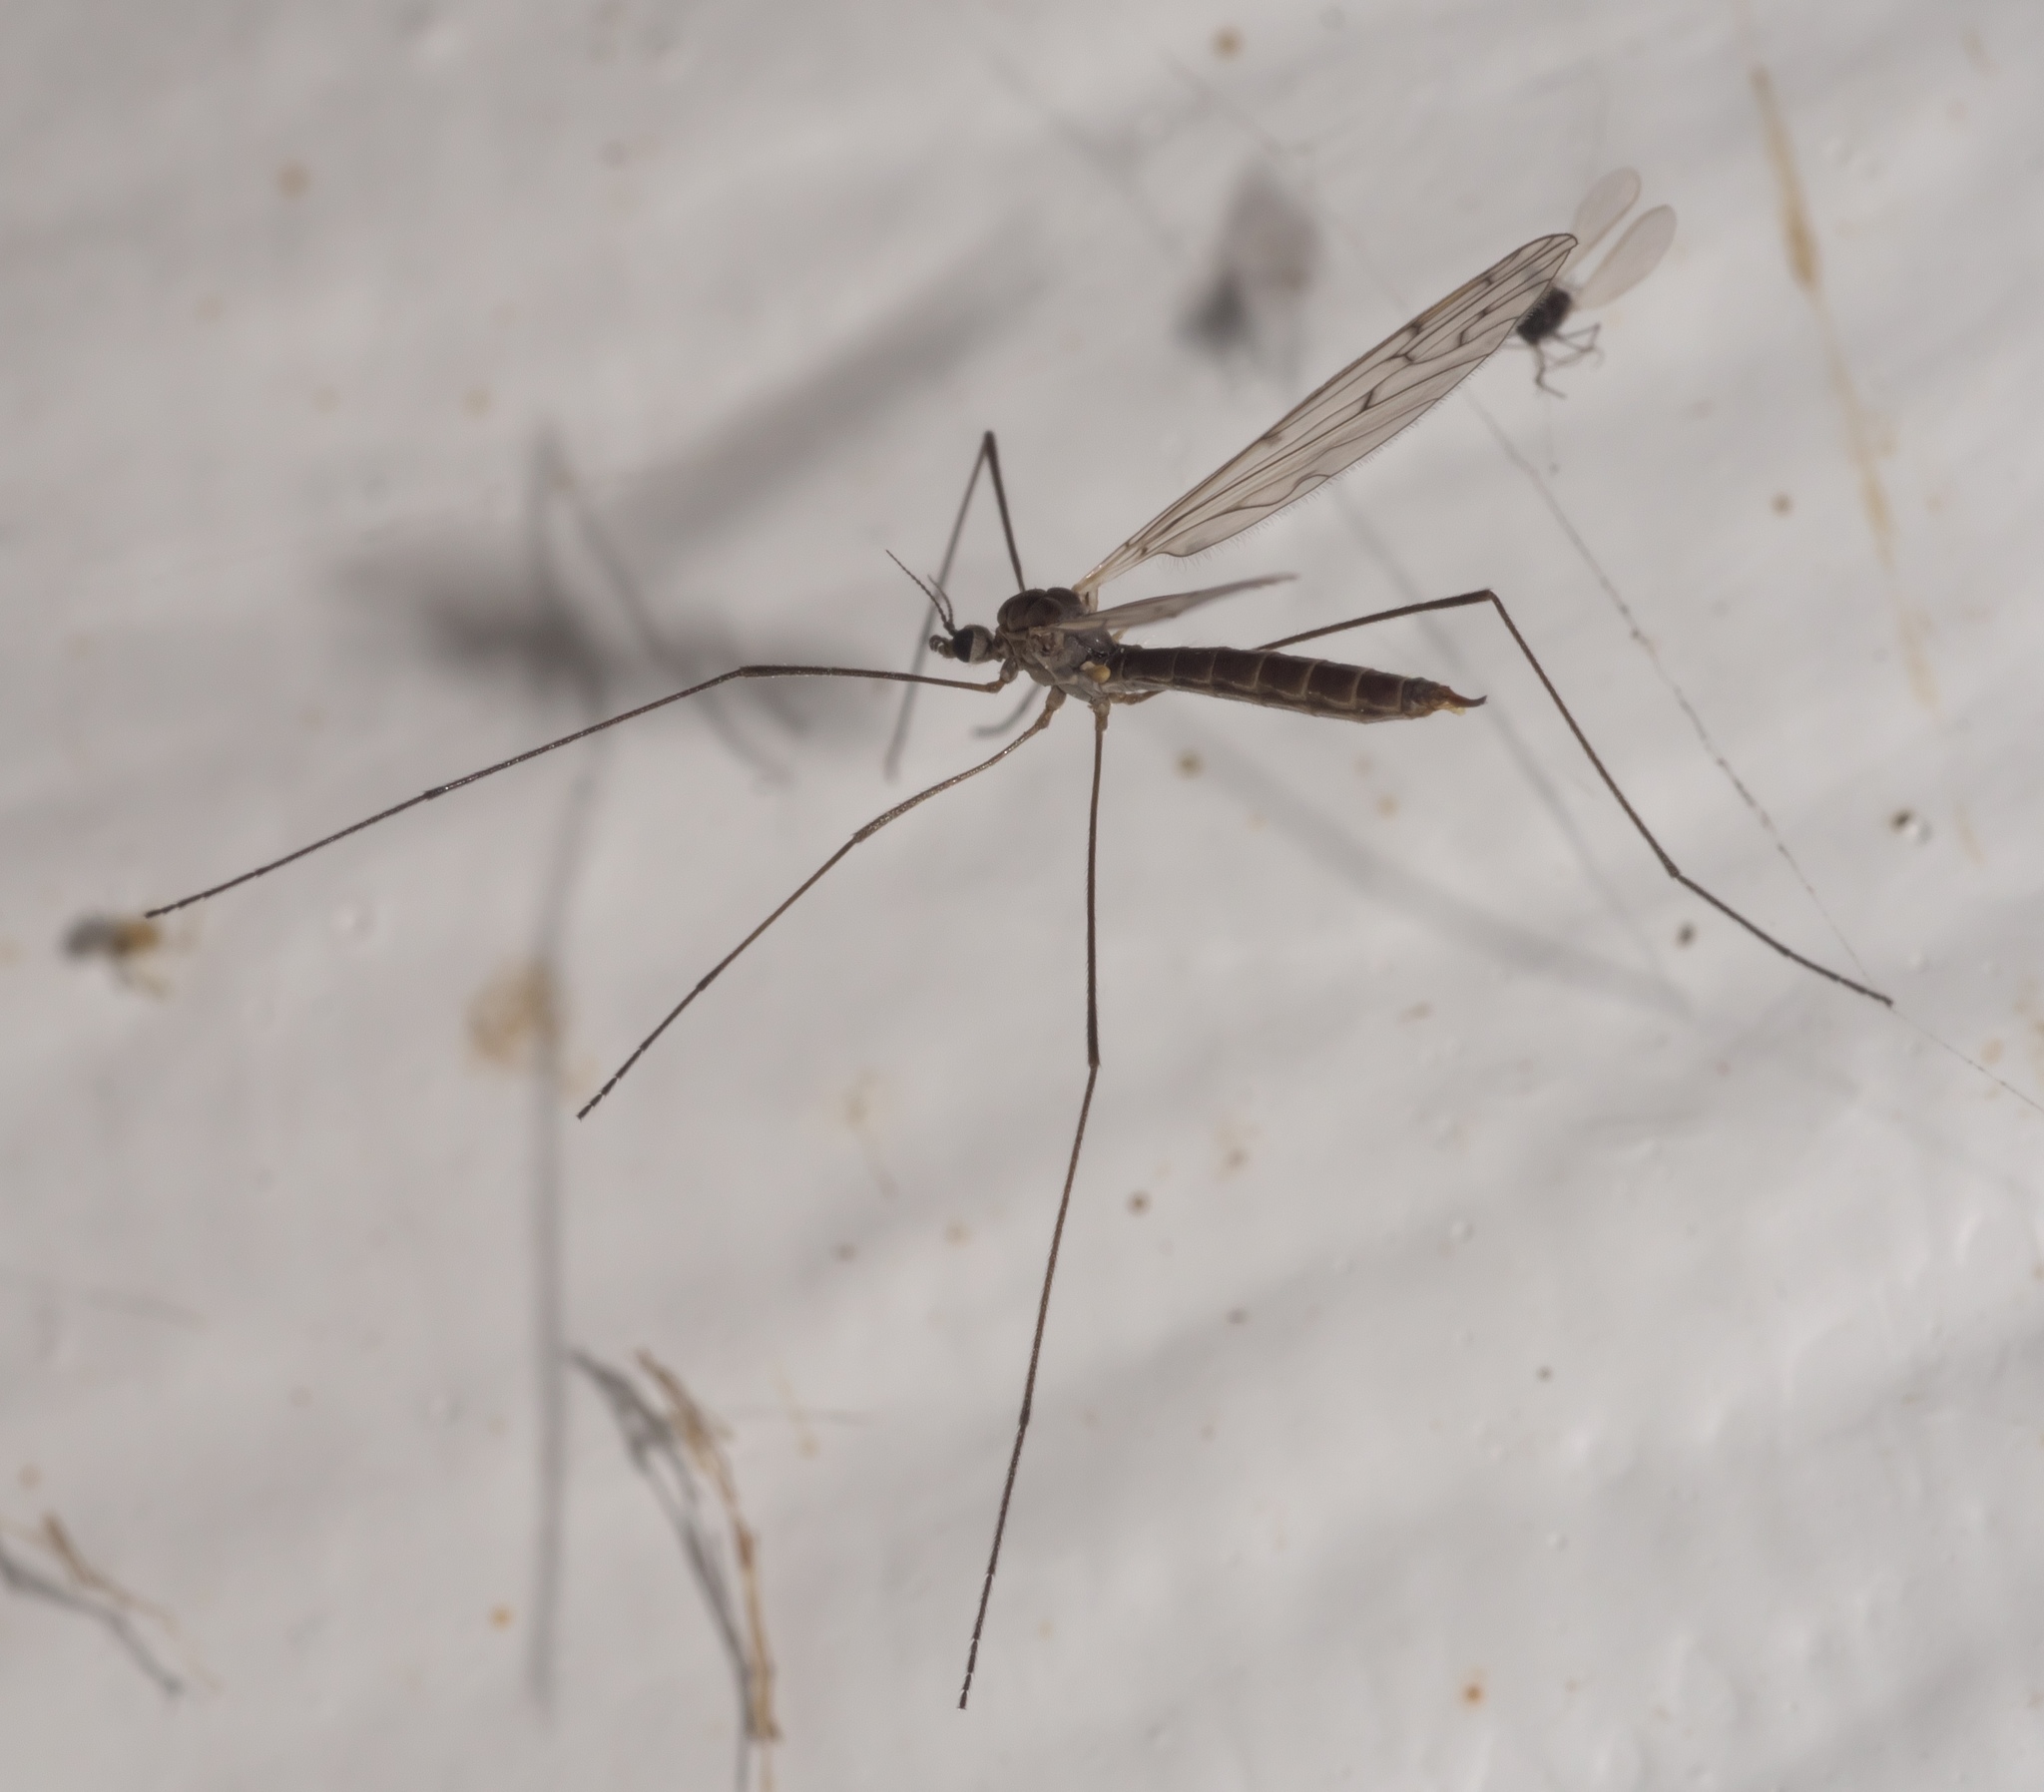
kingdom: Animalia
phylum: Arthropoda
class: Insecta
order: Diptera
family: Limoniidae
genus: Symplecta
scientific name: Symplecta cana
